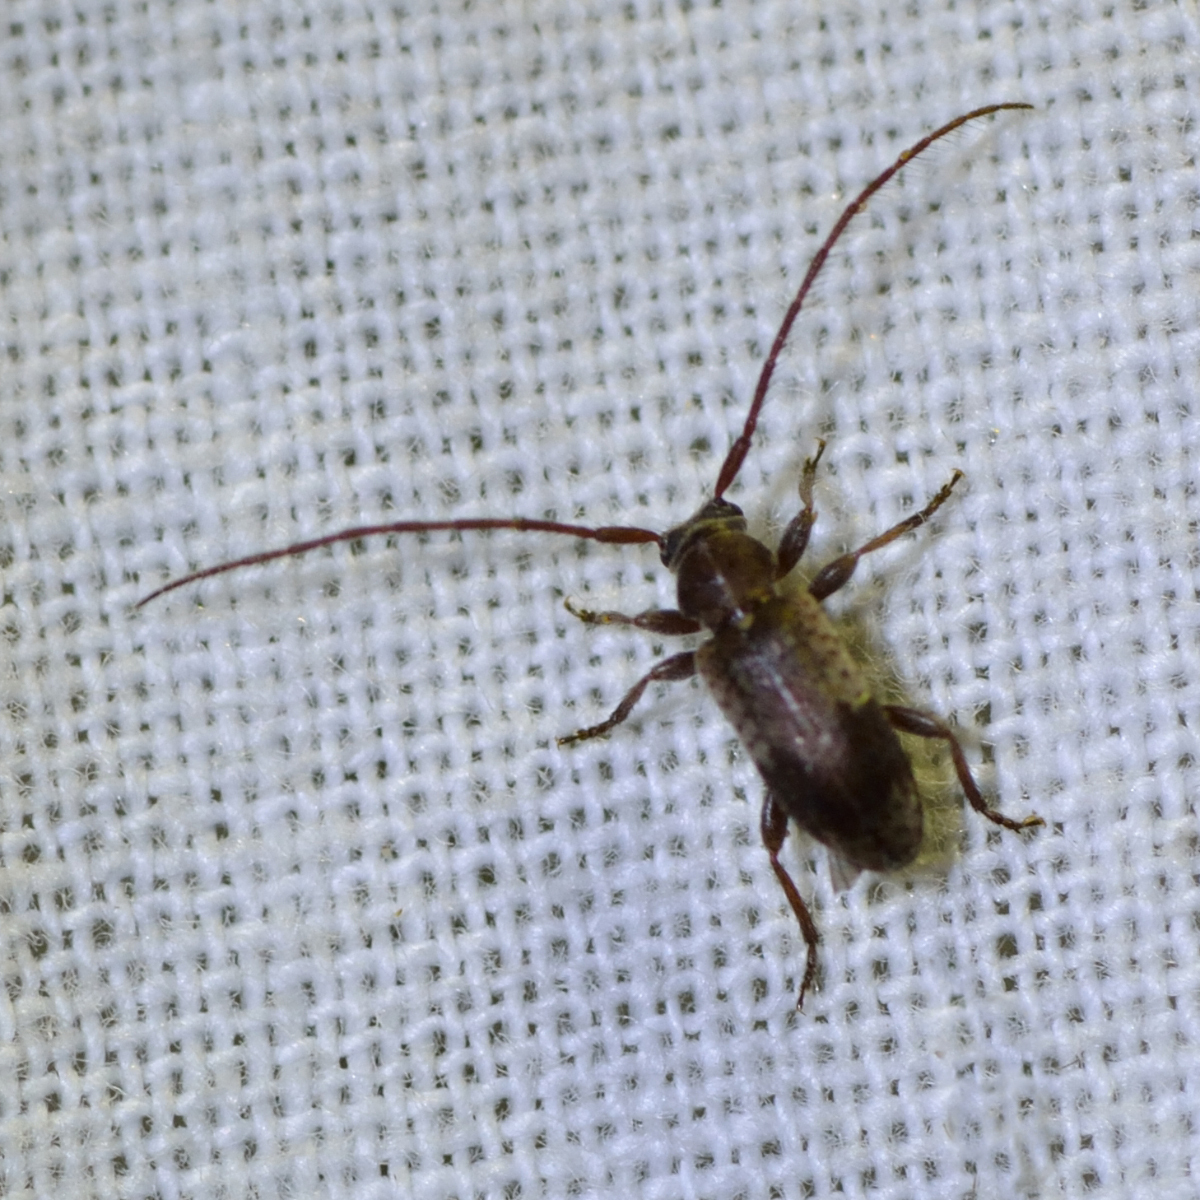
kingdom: Animalia
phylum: Arthropoda
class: Insecta
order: Coleoptera
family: Cerambycidae
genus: Exocentrus
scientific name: Exocentrus punctipennis
